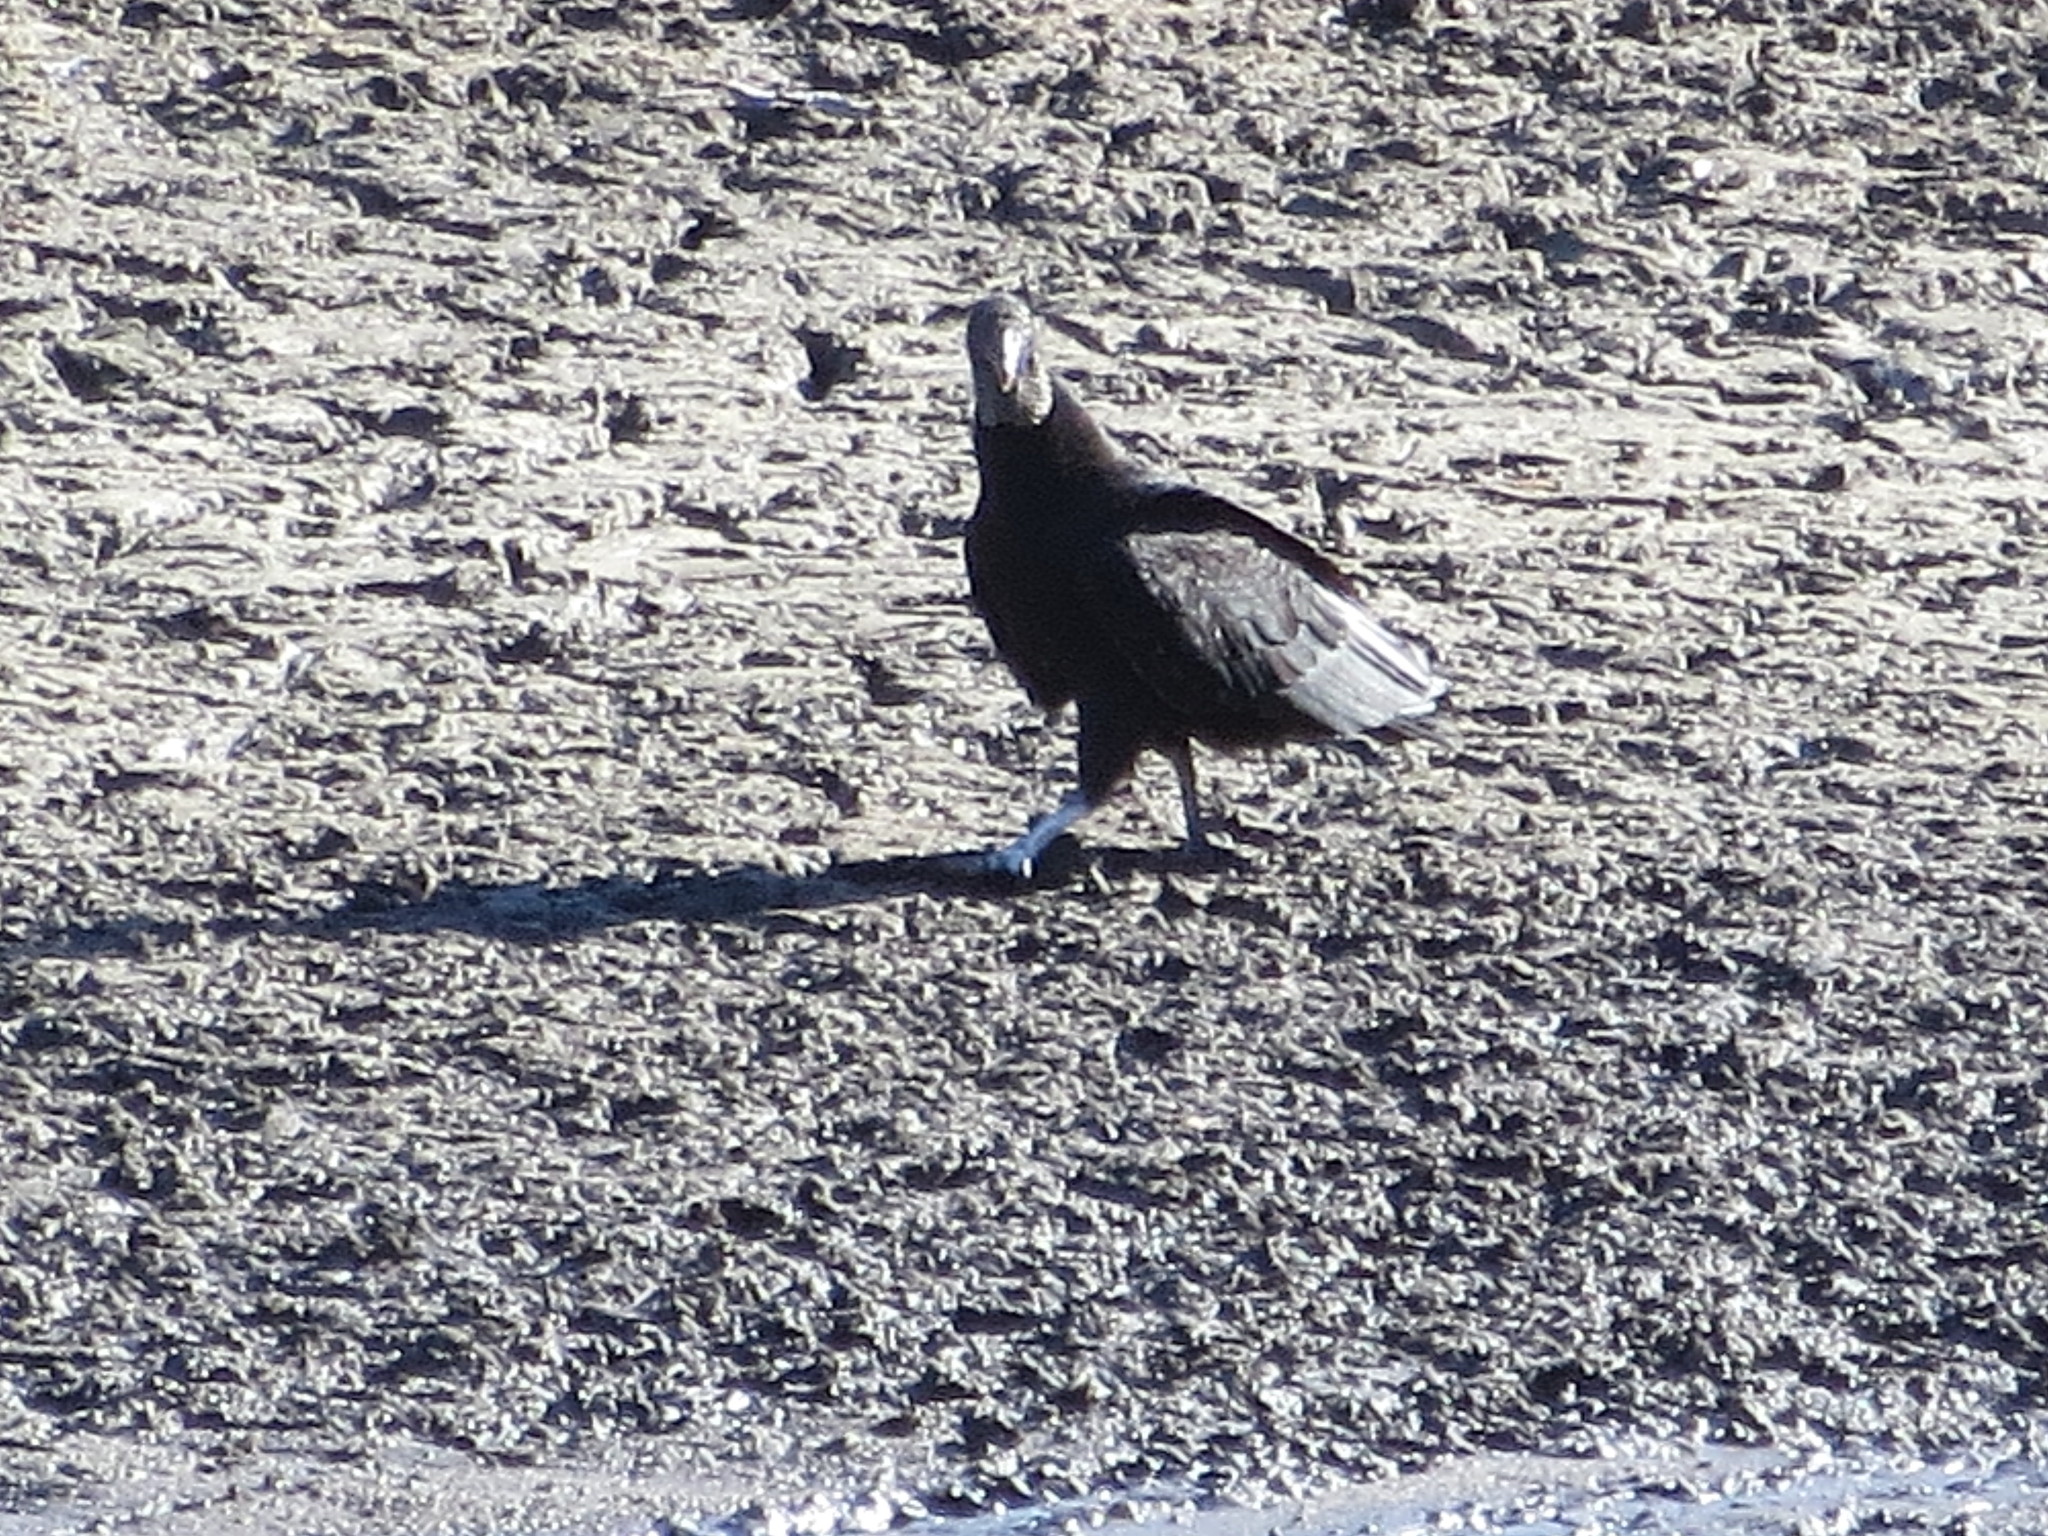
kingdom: Animalia
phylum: Chordata
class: Aves
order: Accipitriformes
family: Cathartidae
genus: Coragyps
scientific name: Coragyps atratus
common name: Black vulture
